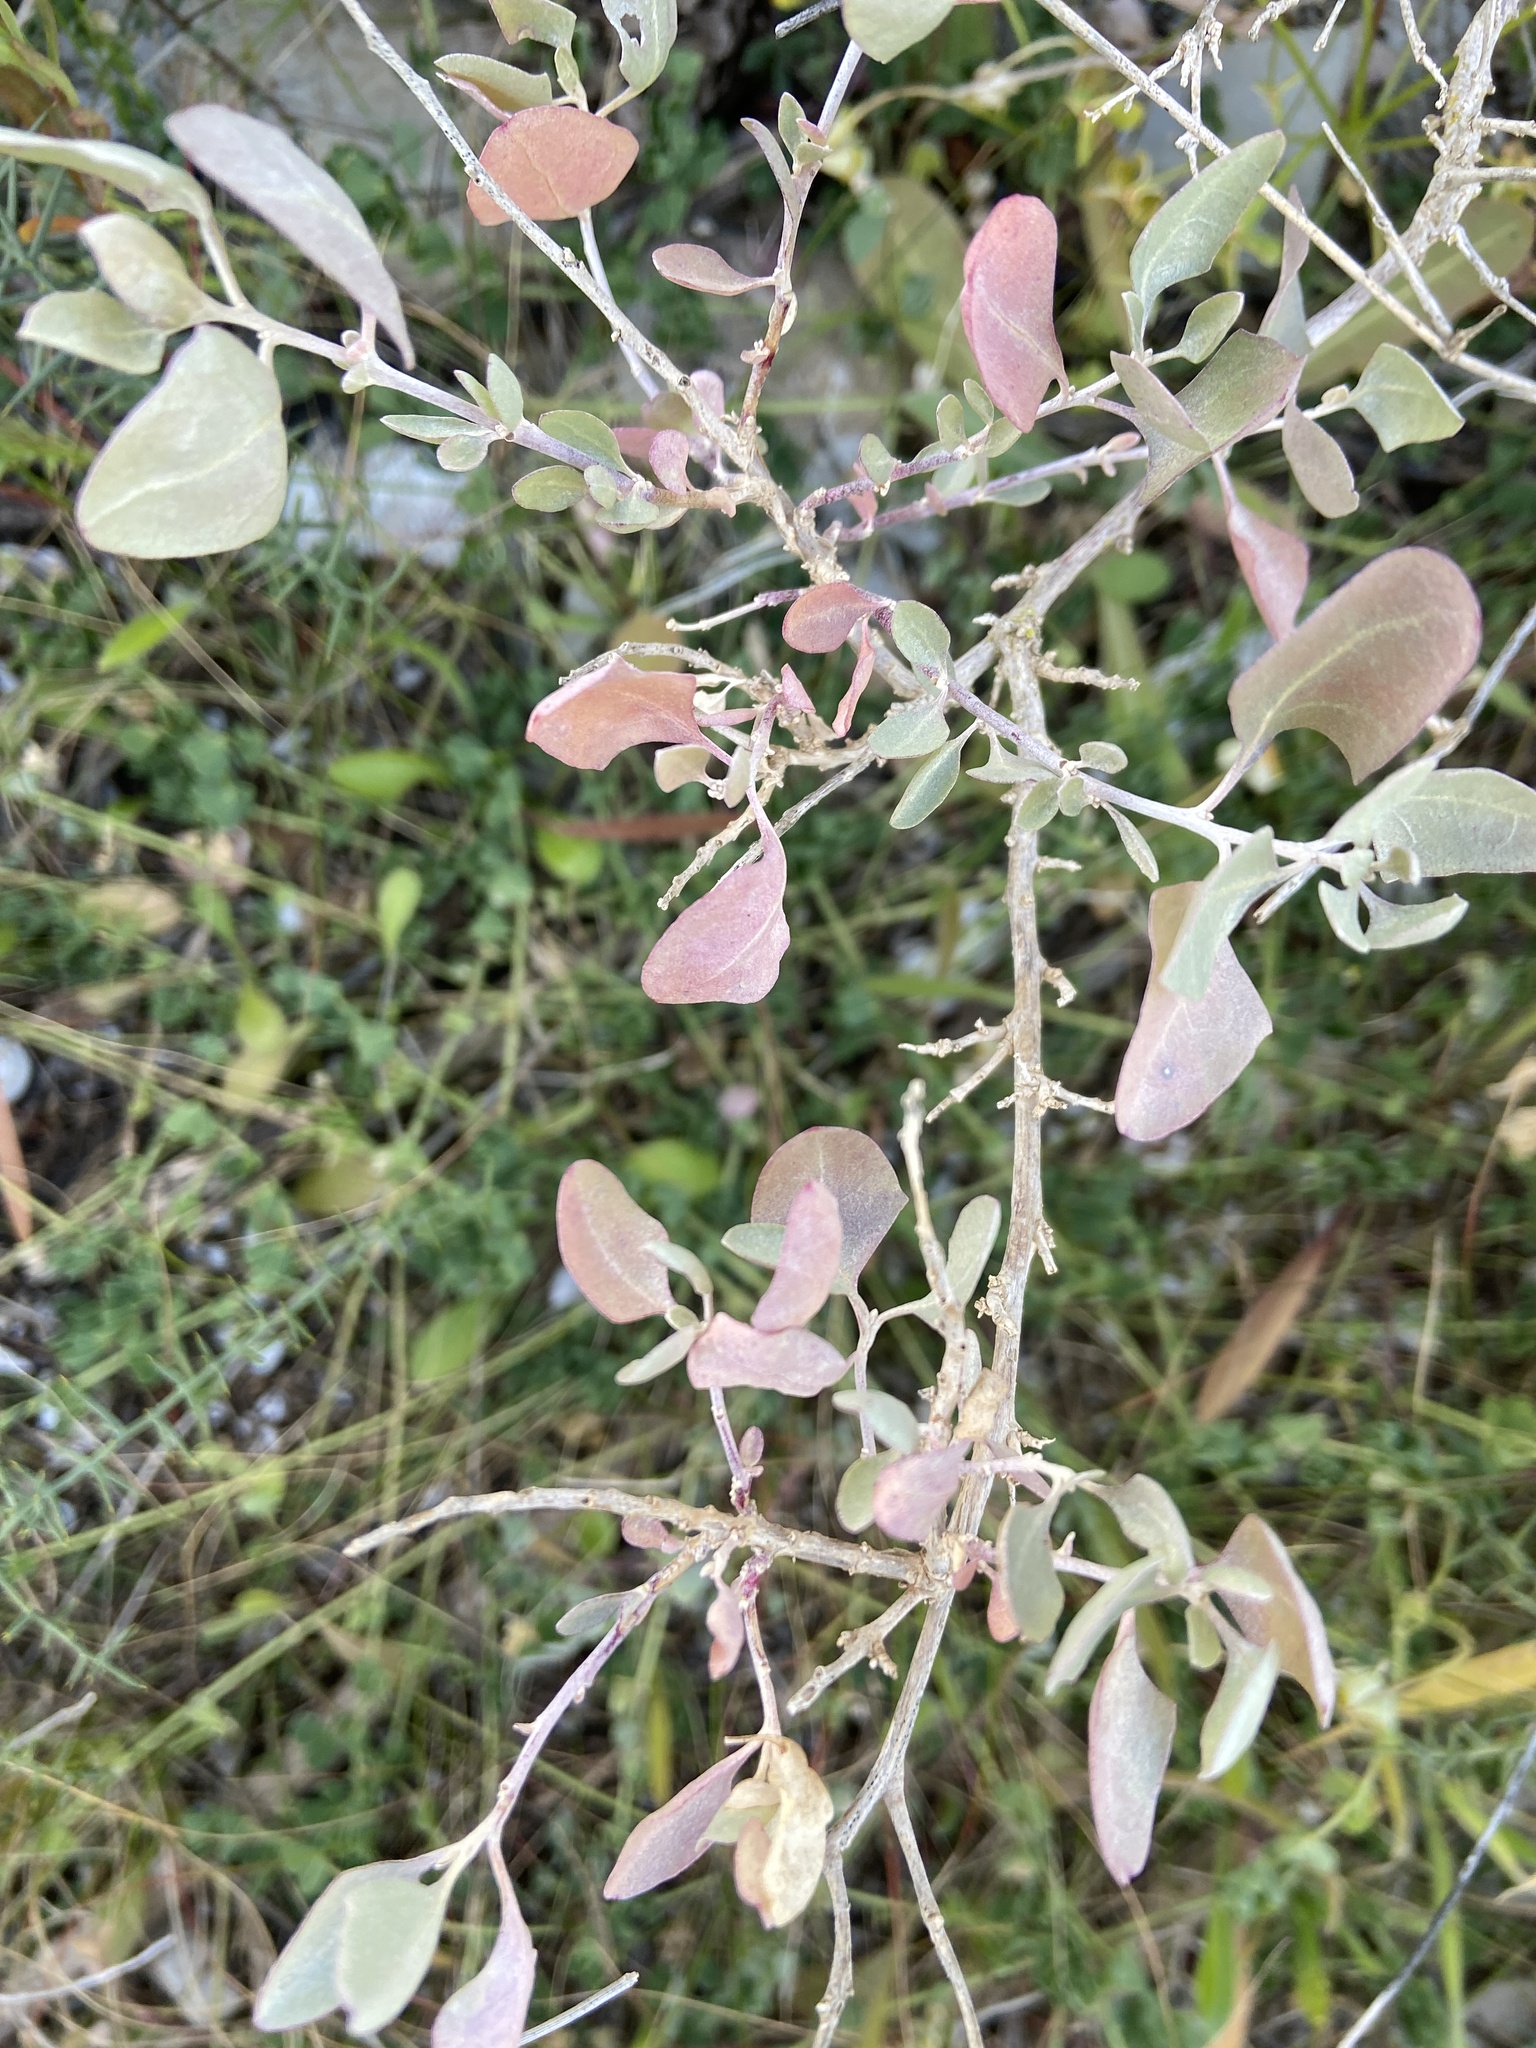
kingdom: Plantae
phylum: Tracheophyta
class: Magnoliopsida
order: Caryophyllales
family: Amaranthaceae
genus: Atriplex
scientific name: Atriplex halimus
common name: Shrubby orache
